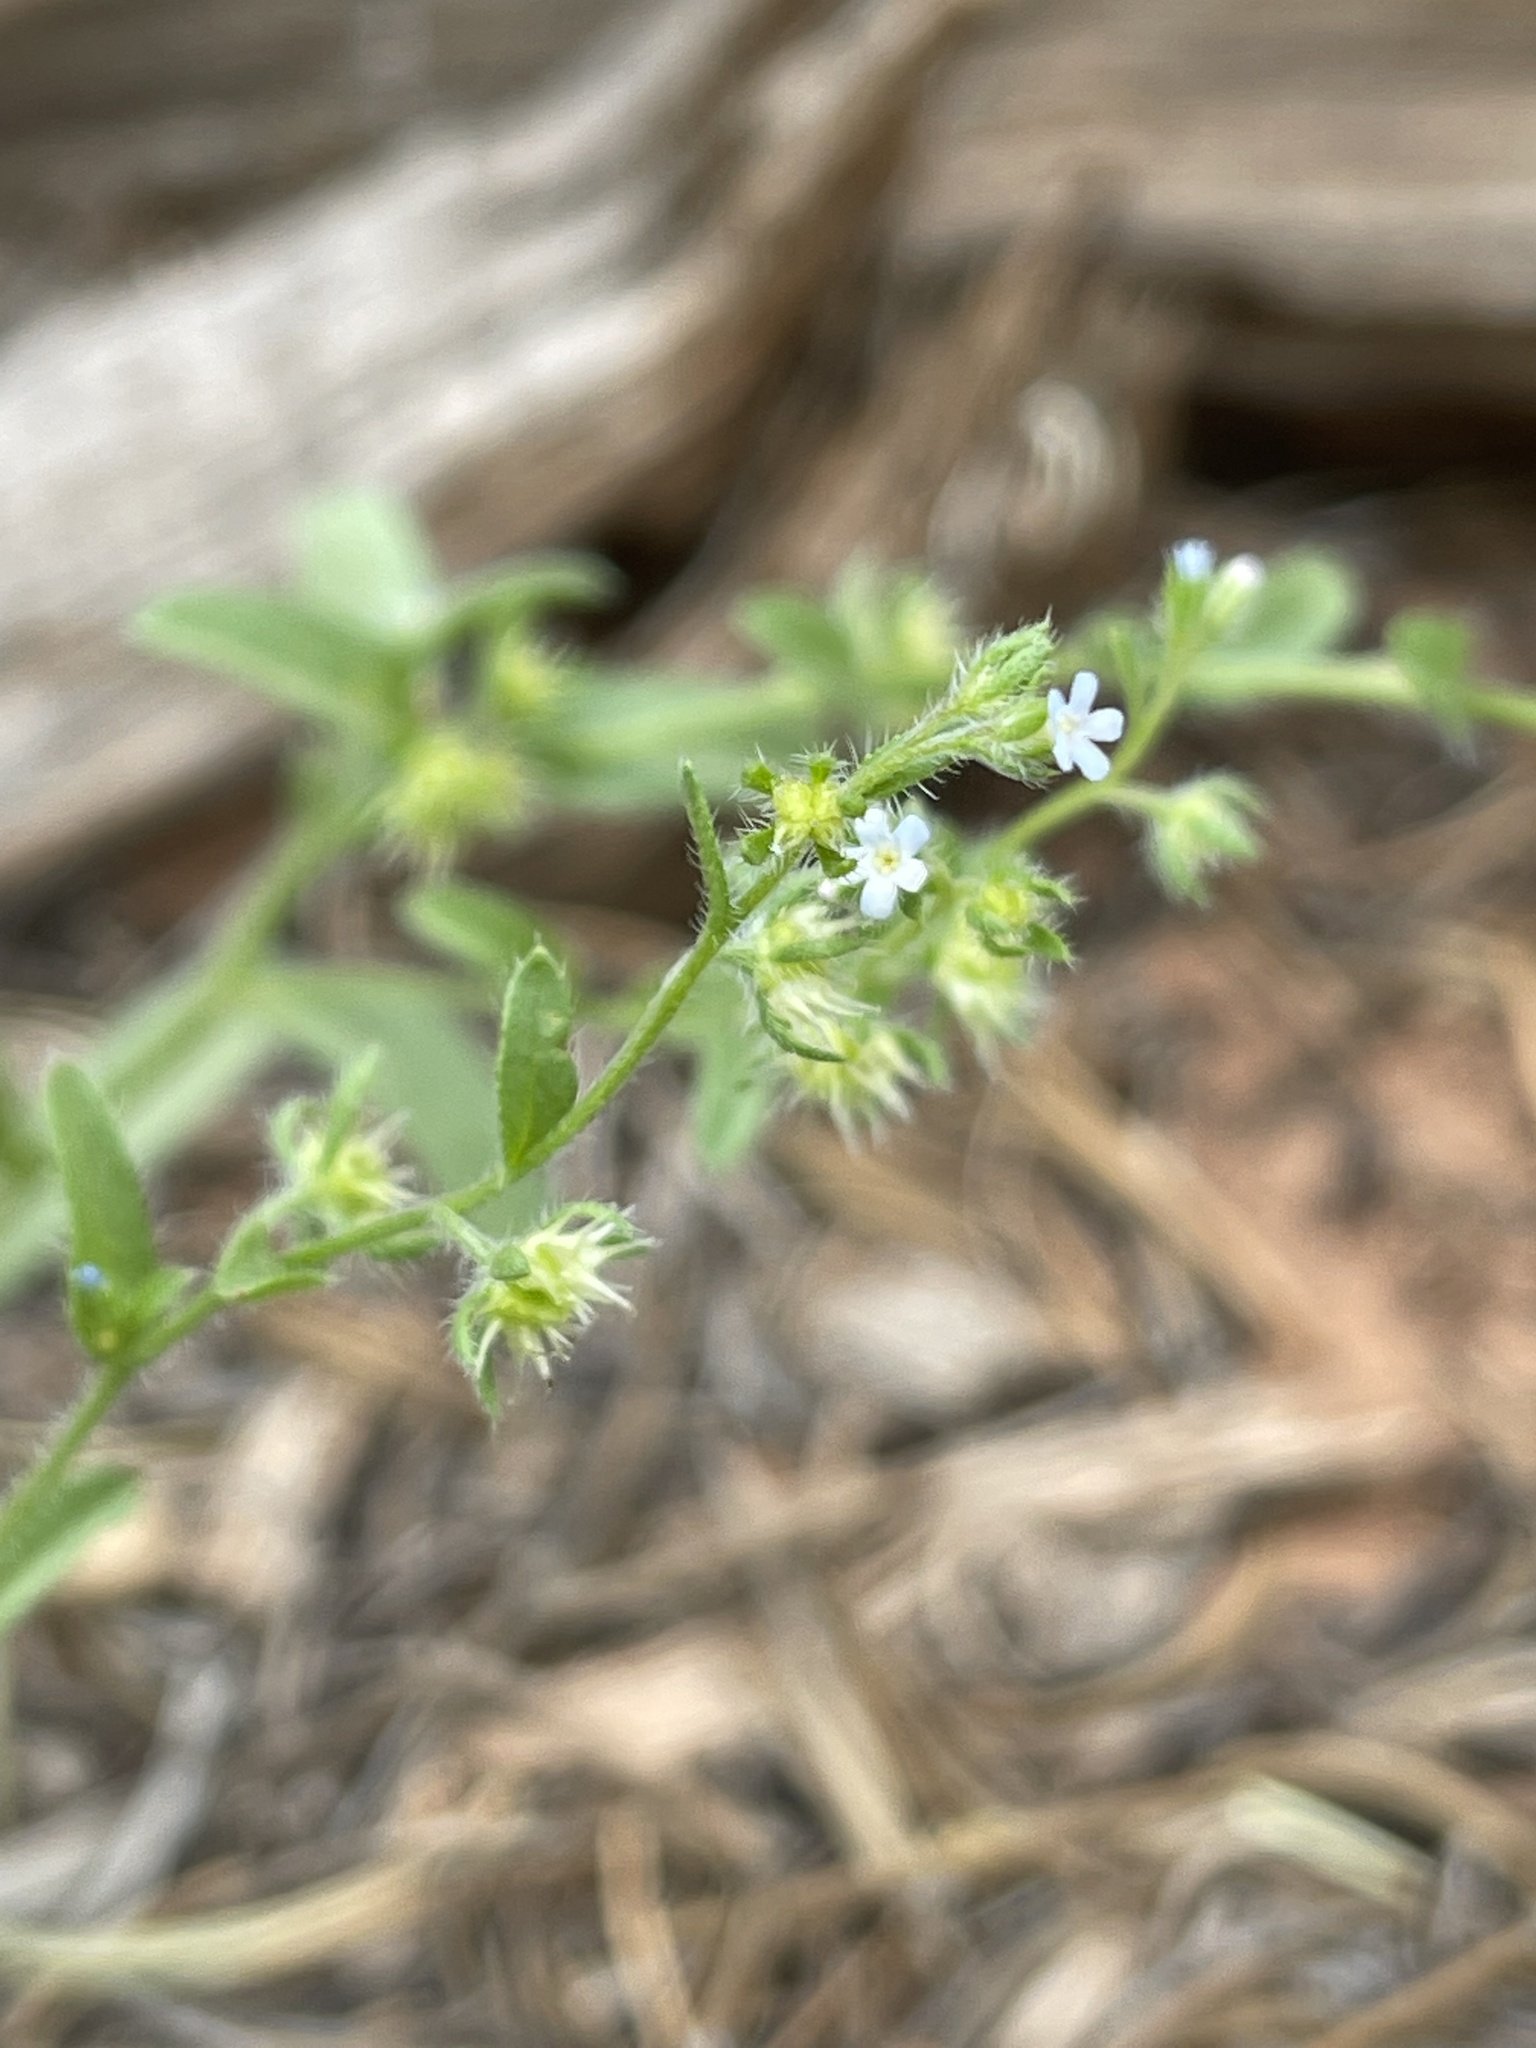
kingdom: Plantae
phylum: Tracheophyta
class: Magnoliopsida
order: Boraginales
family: Boraginaceae
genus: Lappula
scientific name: Lappula occidentalis
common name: Western stickseed
